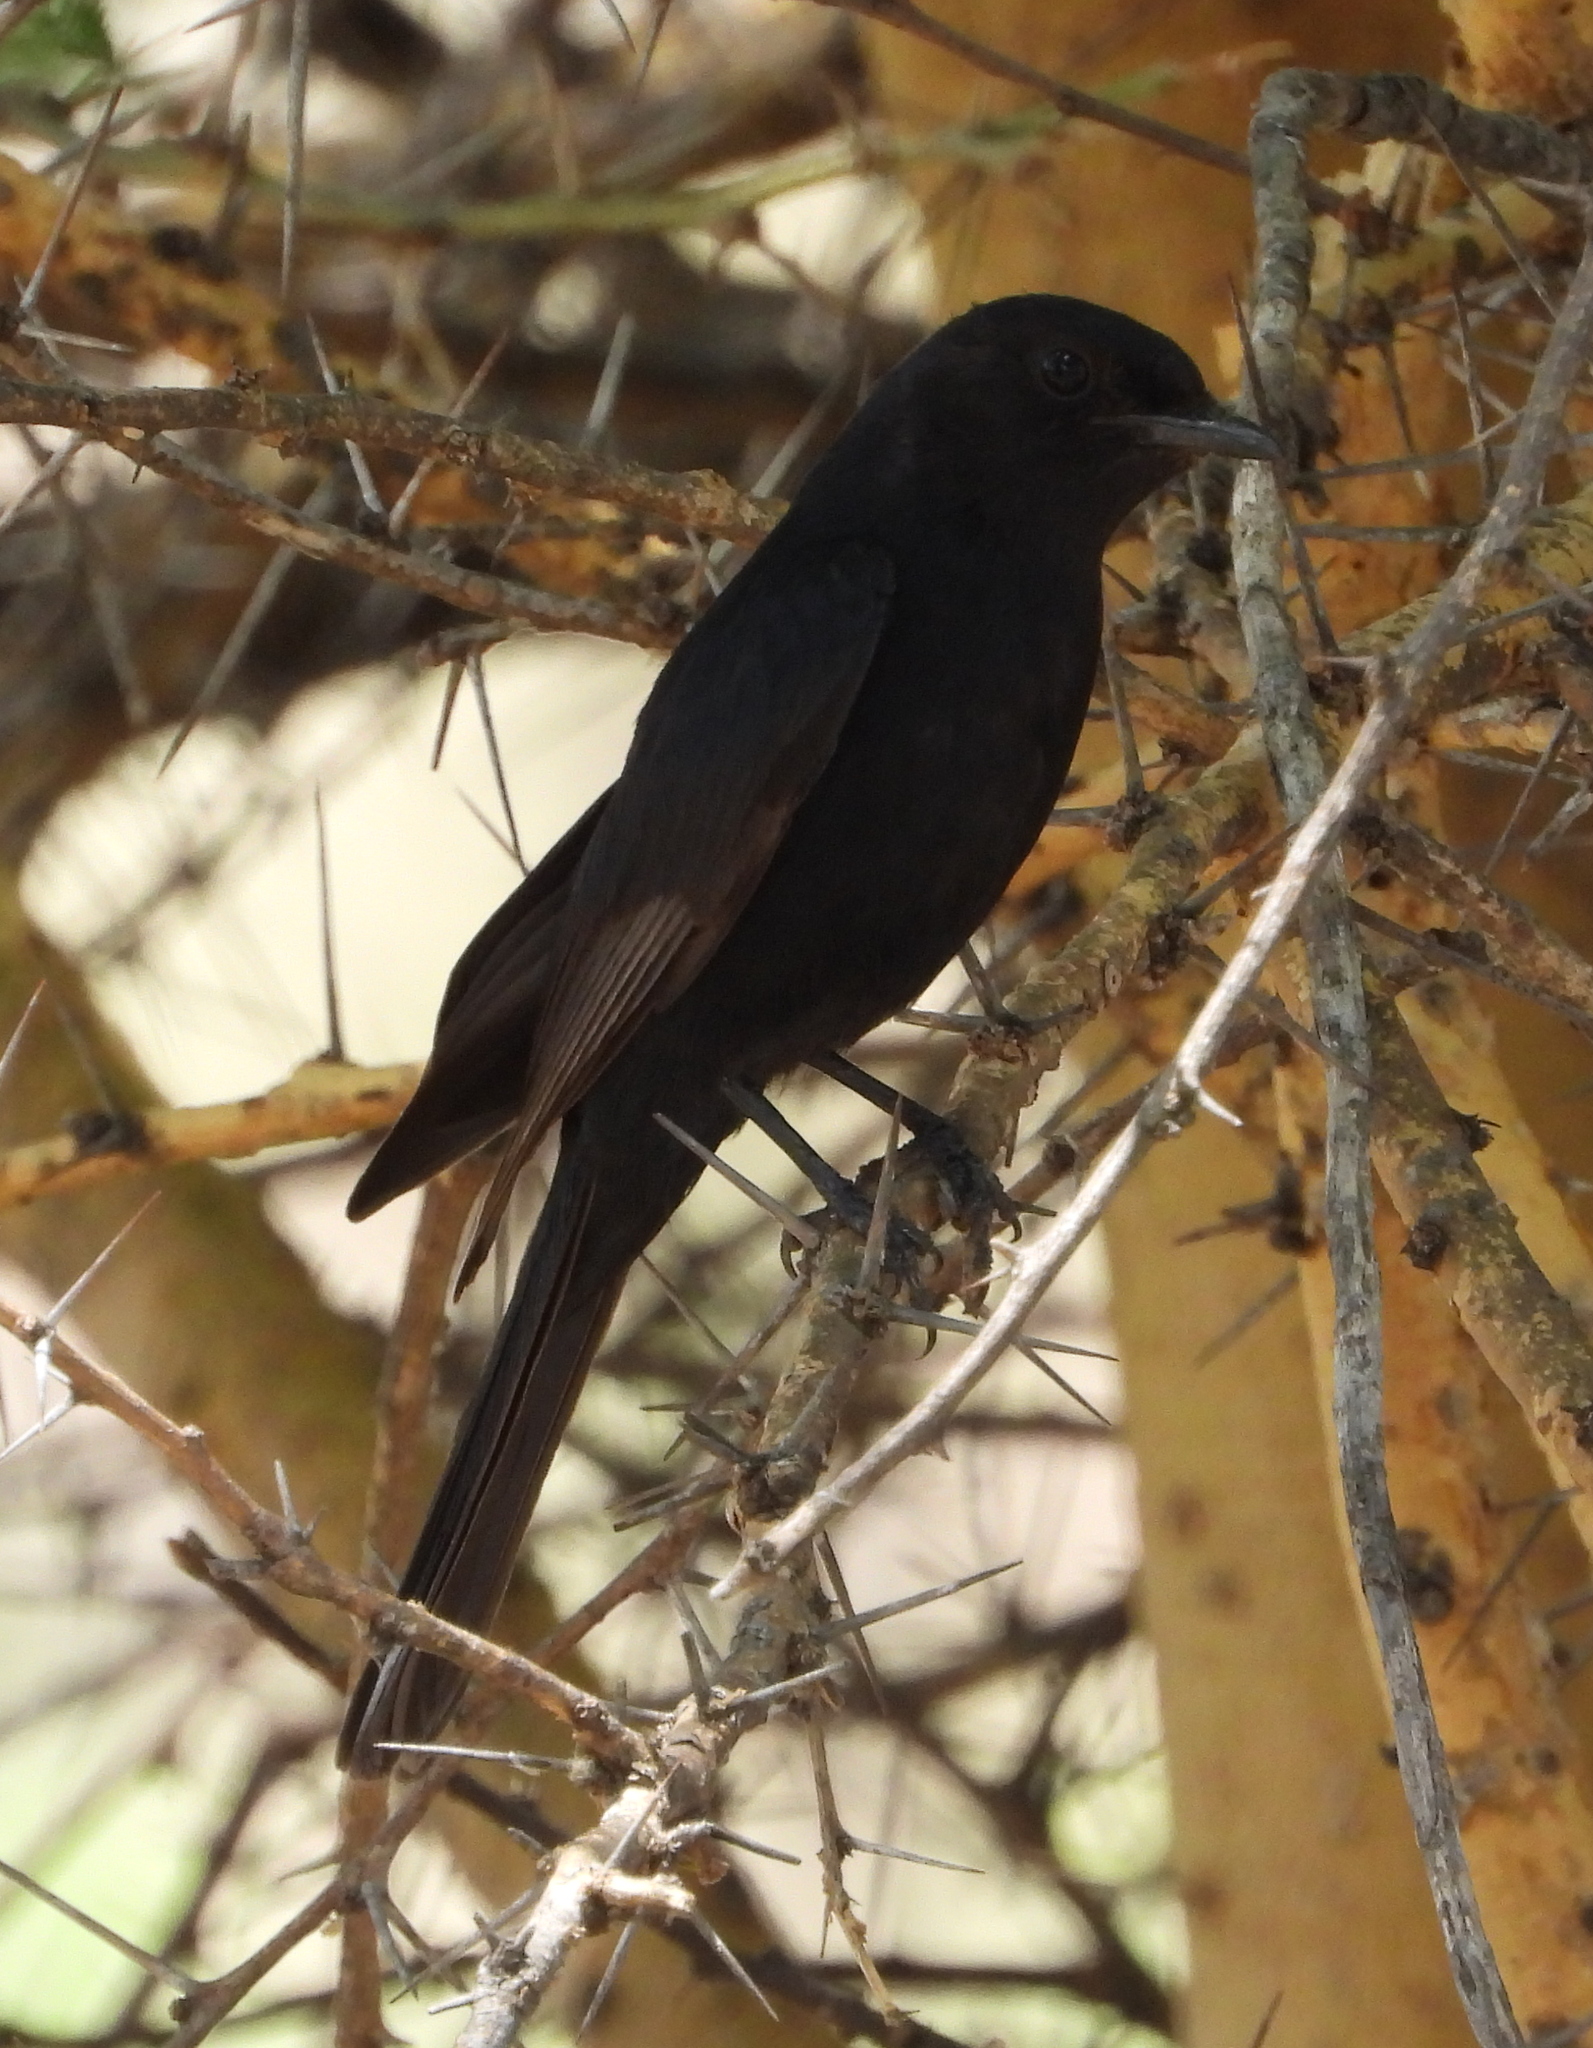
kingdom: Animalia
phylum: Chordata
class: Aves
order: Passeriformes
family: Muscicapidae
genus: Melaenornis
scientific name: Melaenornis pammelaina
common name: Southern black flycatcher
